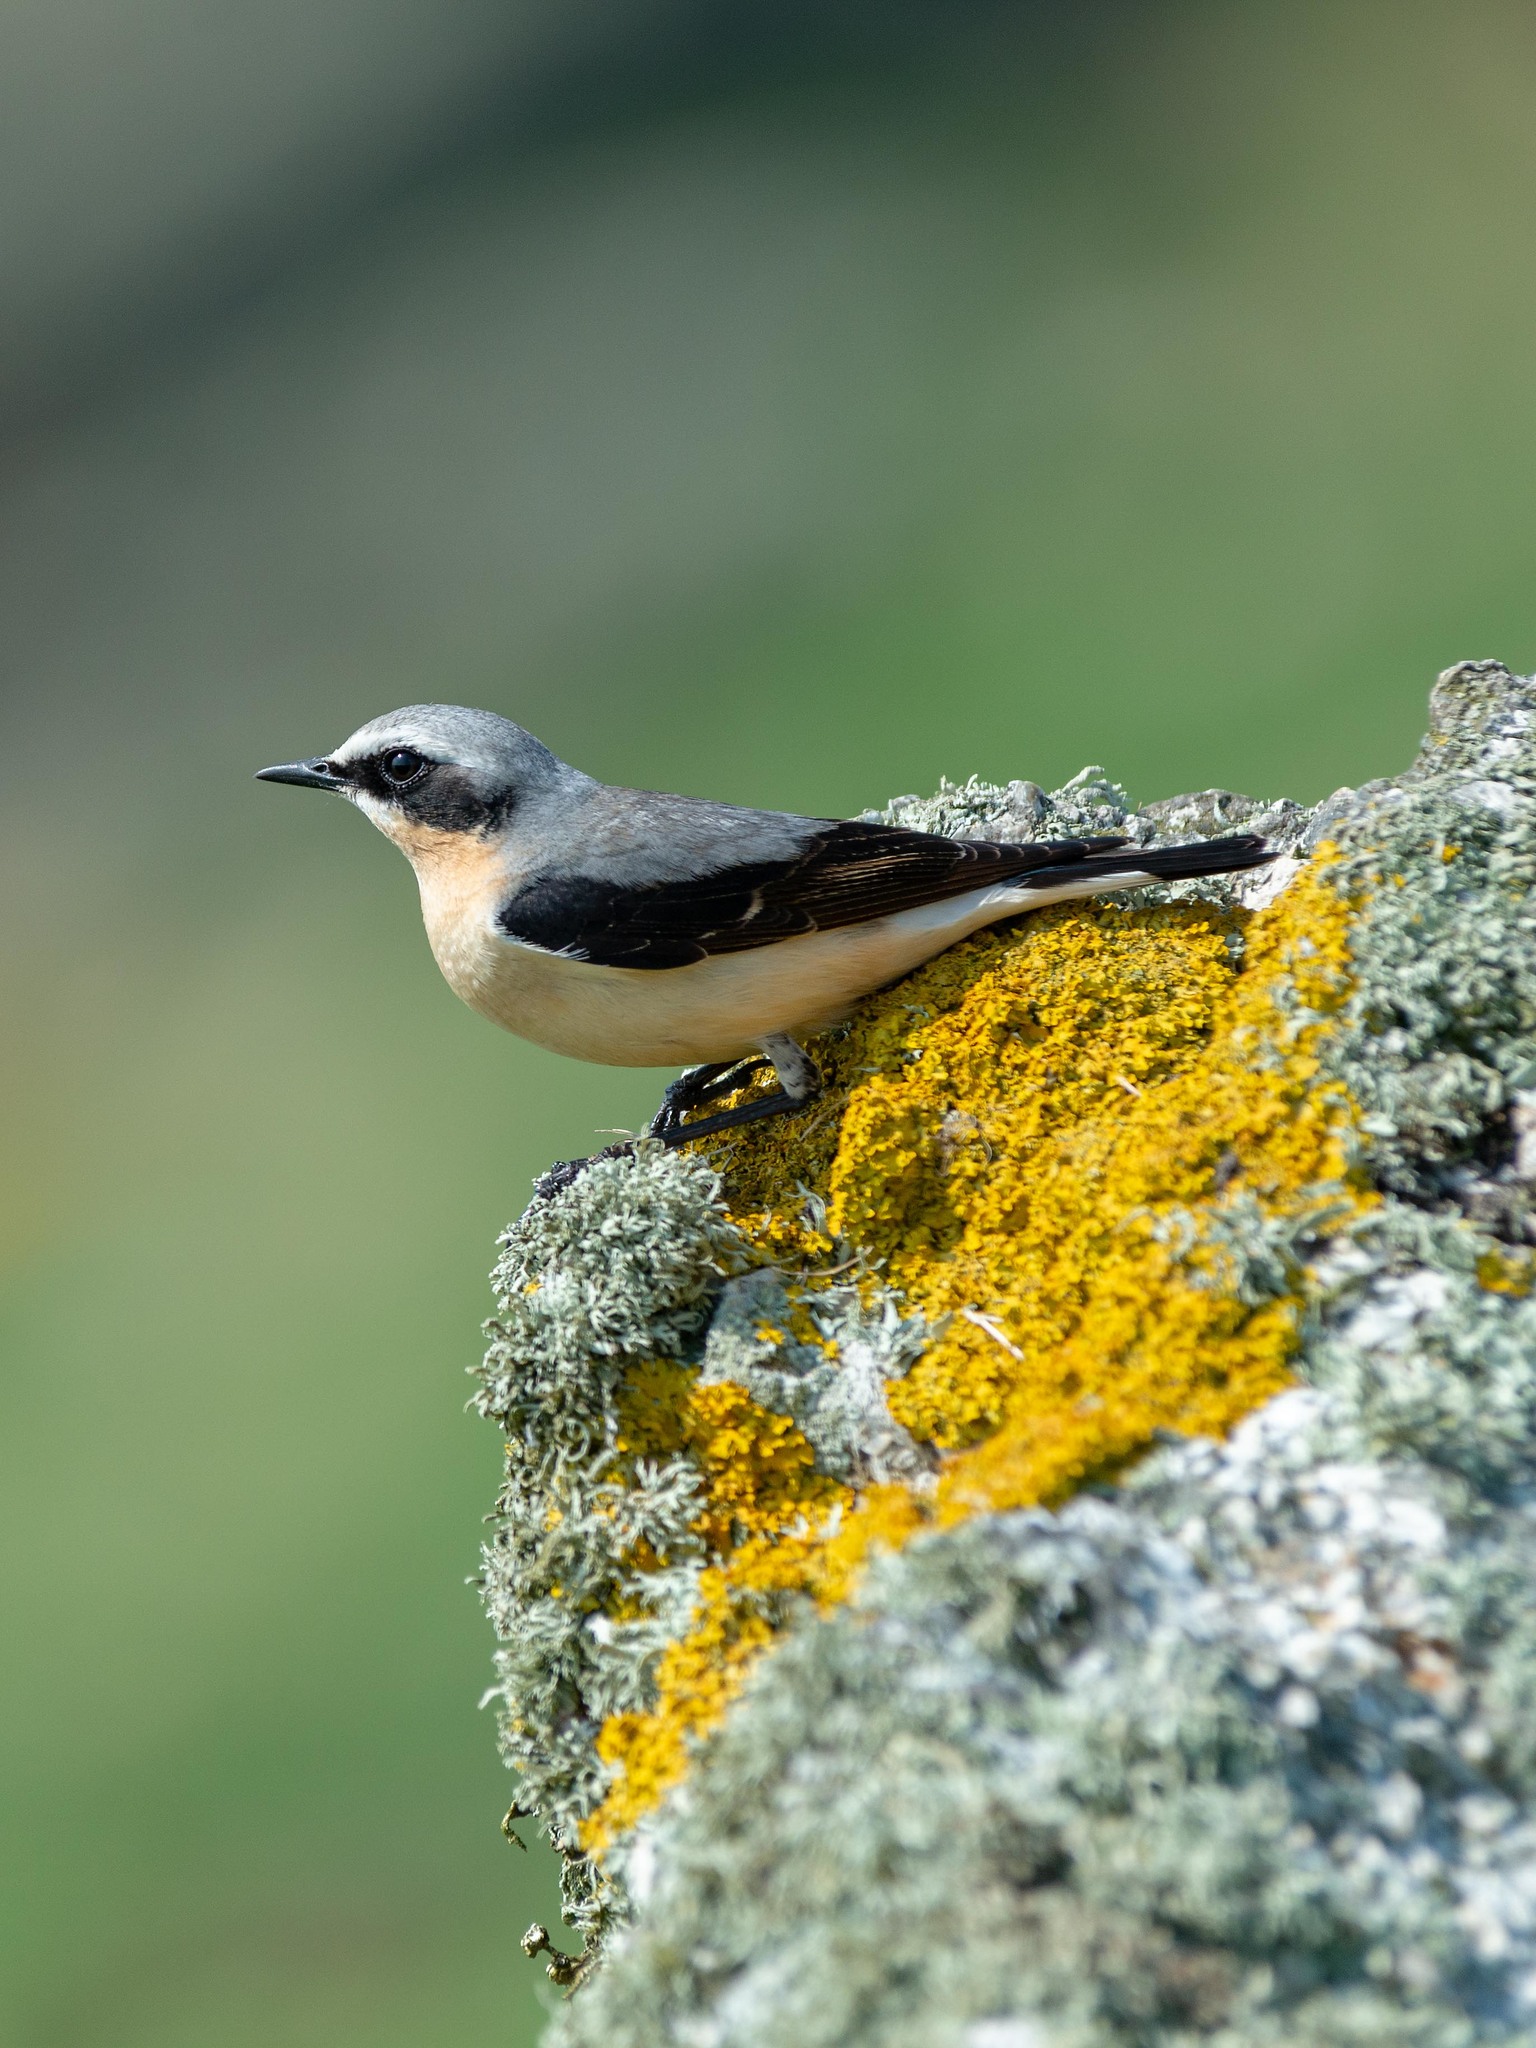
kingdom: Animalia
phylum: Chordata
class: Aves
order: Passeriformes
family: Muscicapidae
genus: Oenanthe
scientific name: Oenanthe oenanthe
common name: Northern wheatear
